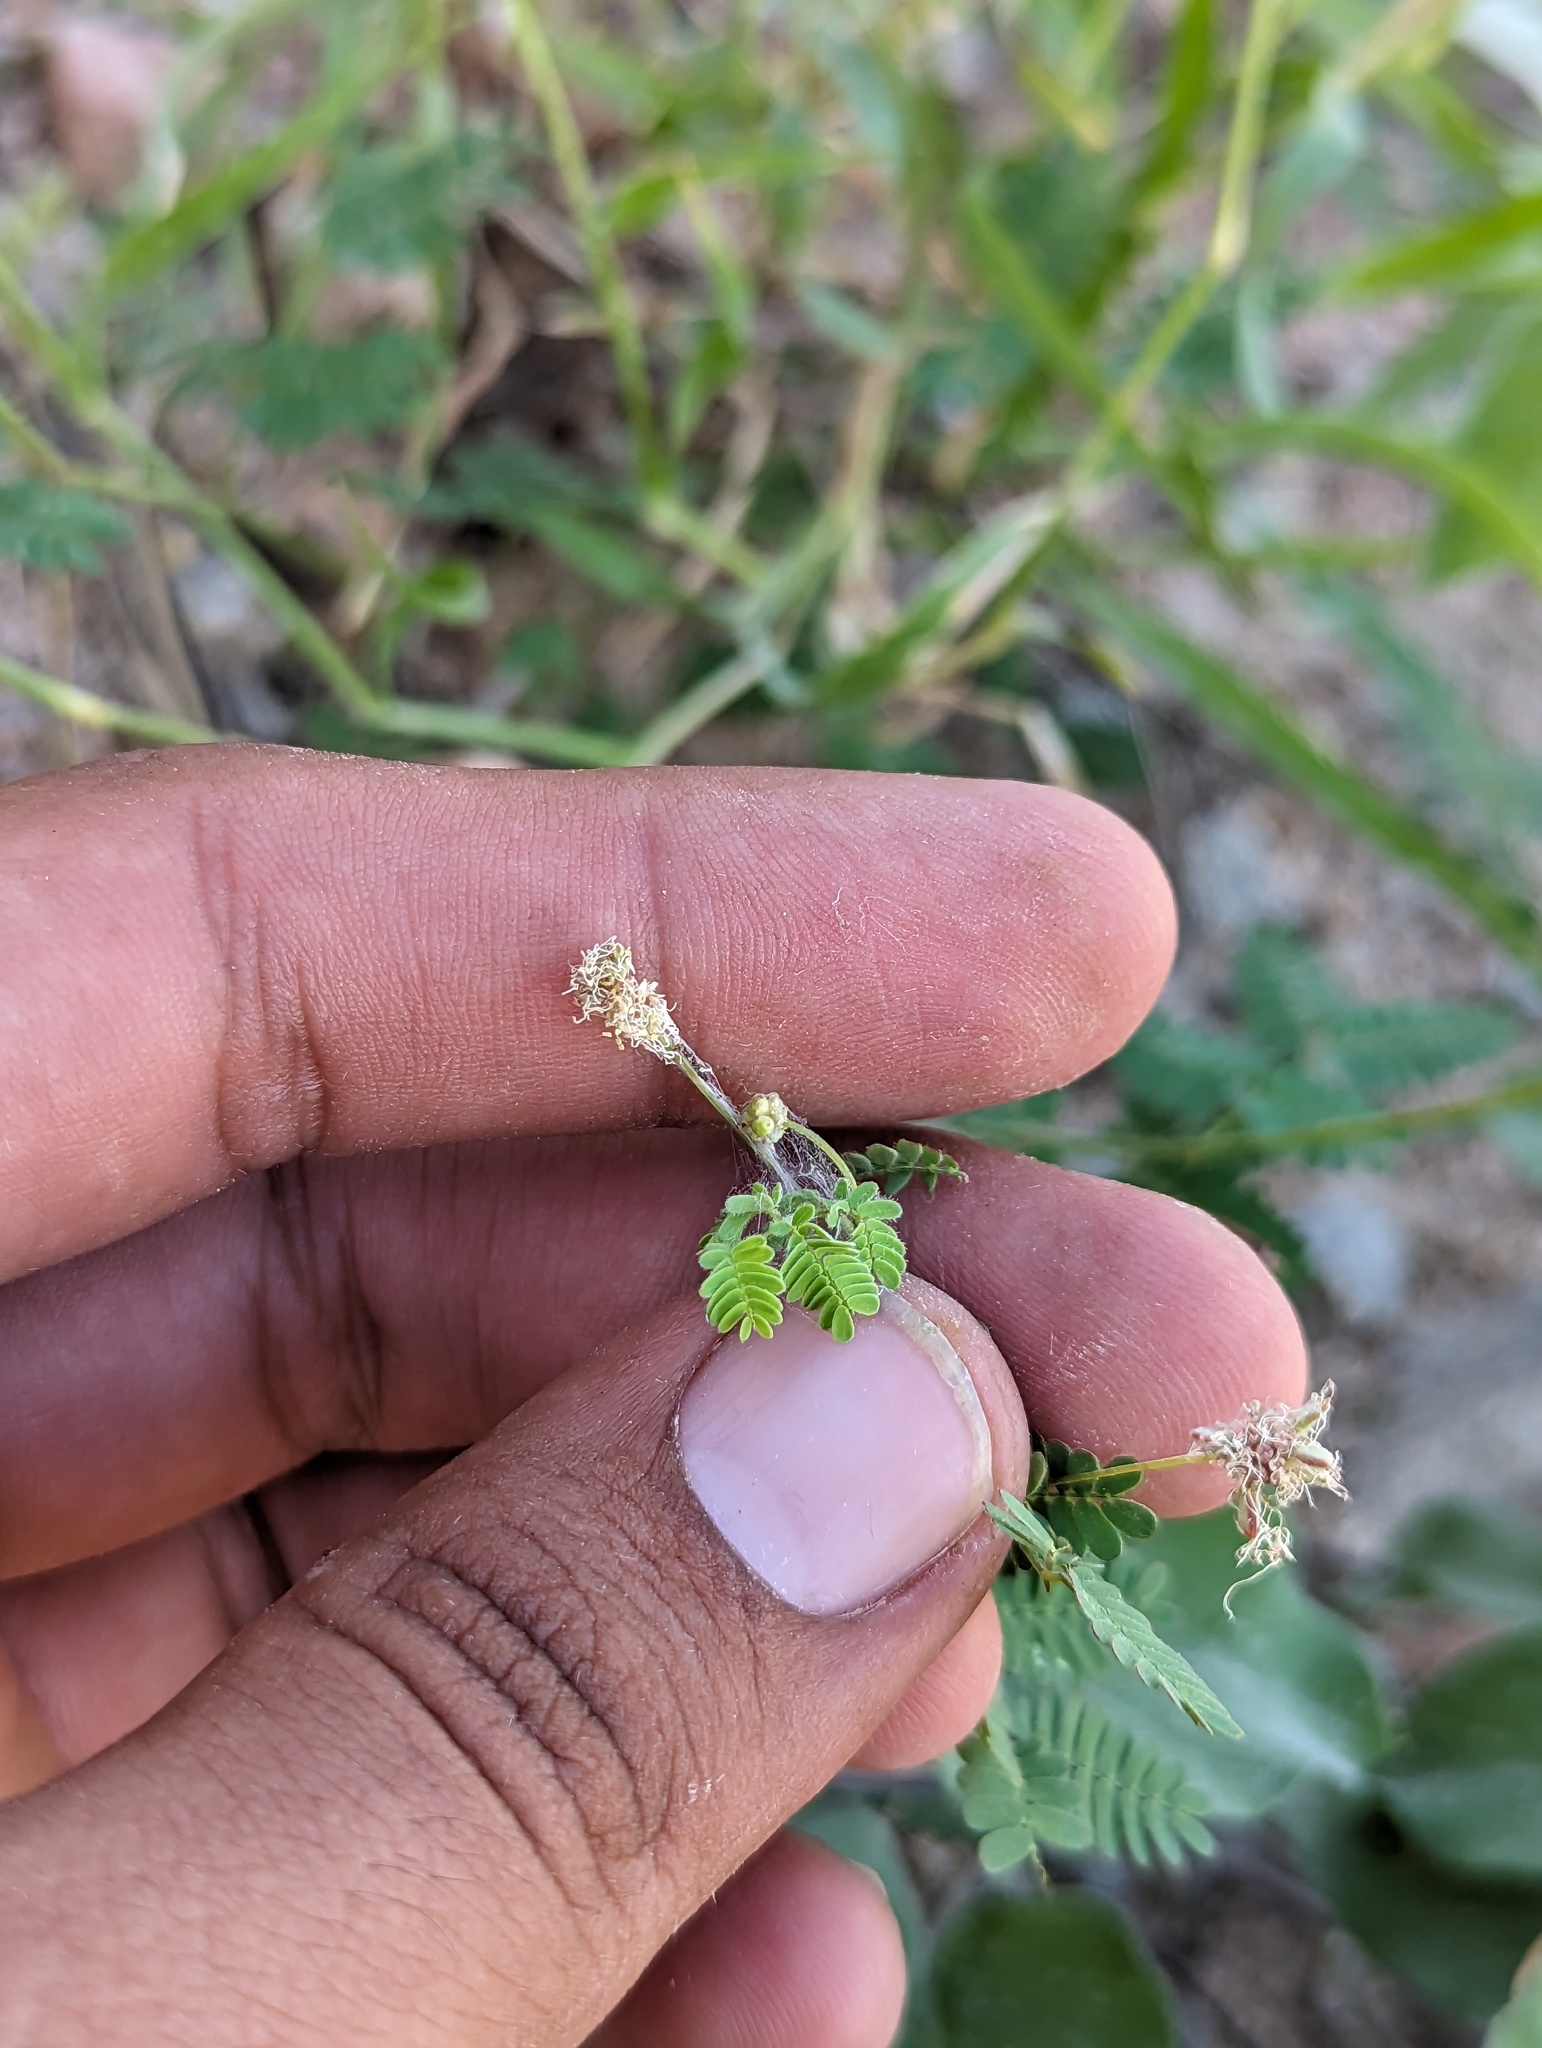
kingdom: Plantae
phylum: Tracheophyta
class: Magnoliopsida
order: Fabales
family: Fabaceae
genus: Desmanthus
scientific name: Desmanthus oligospermus
